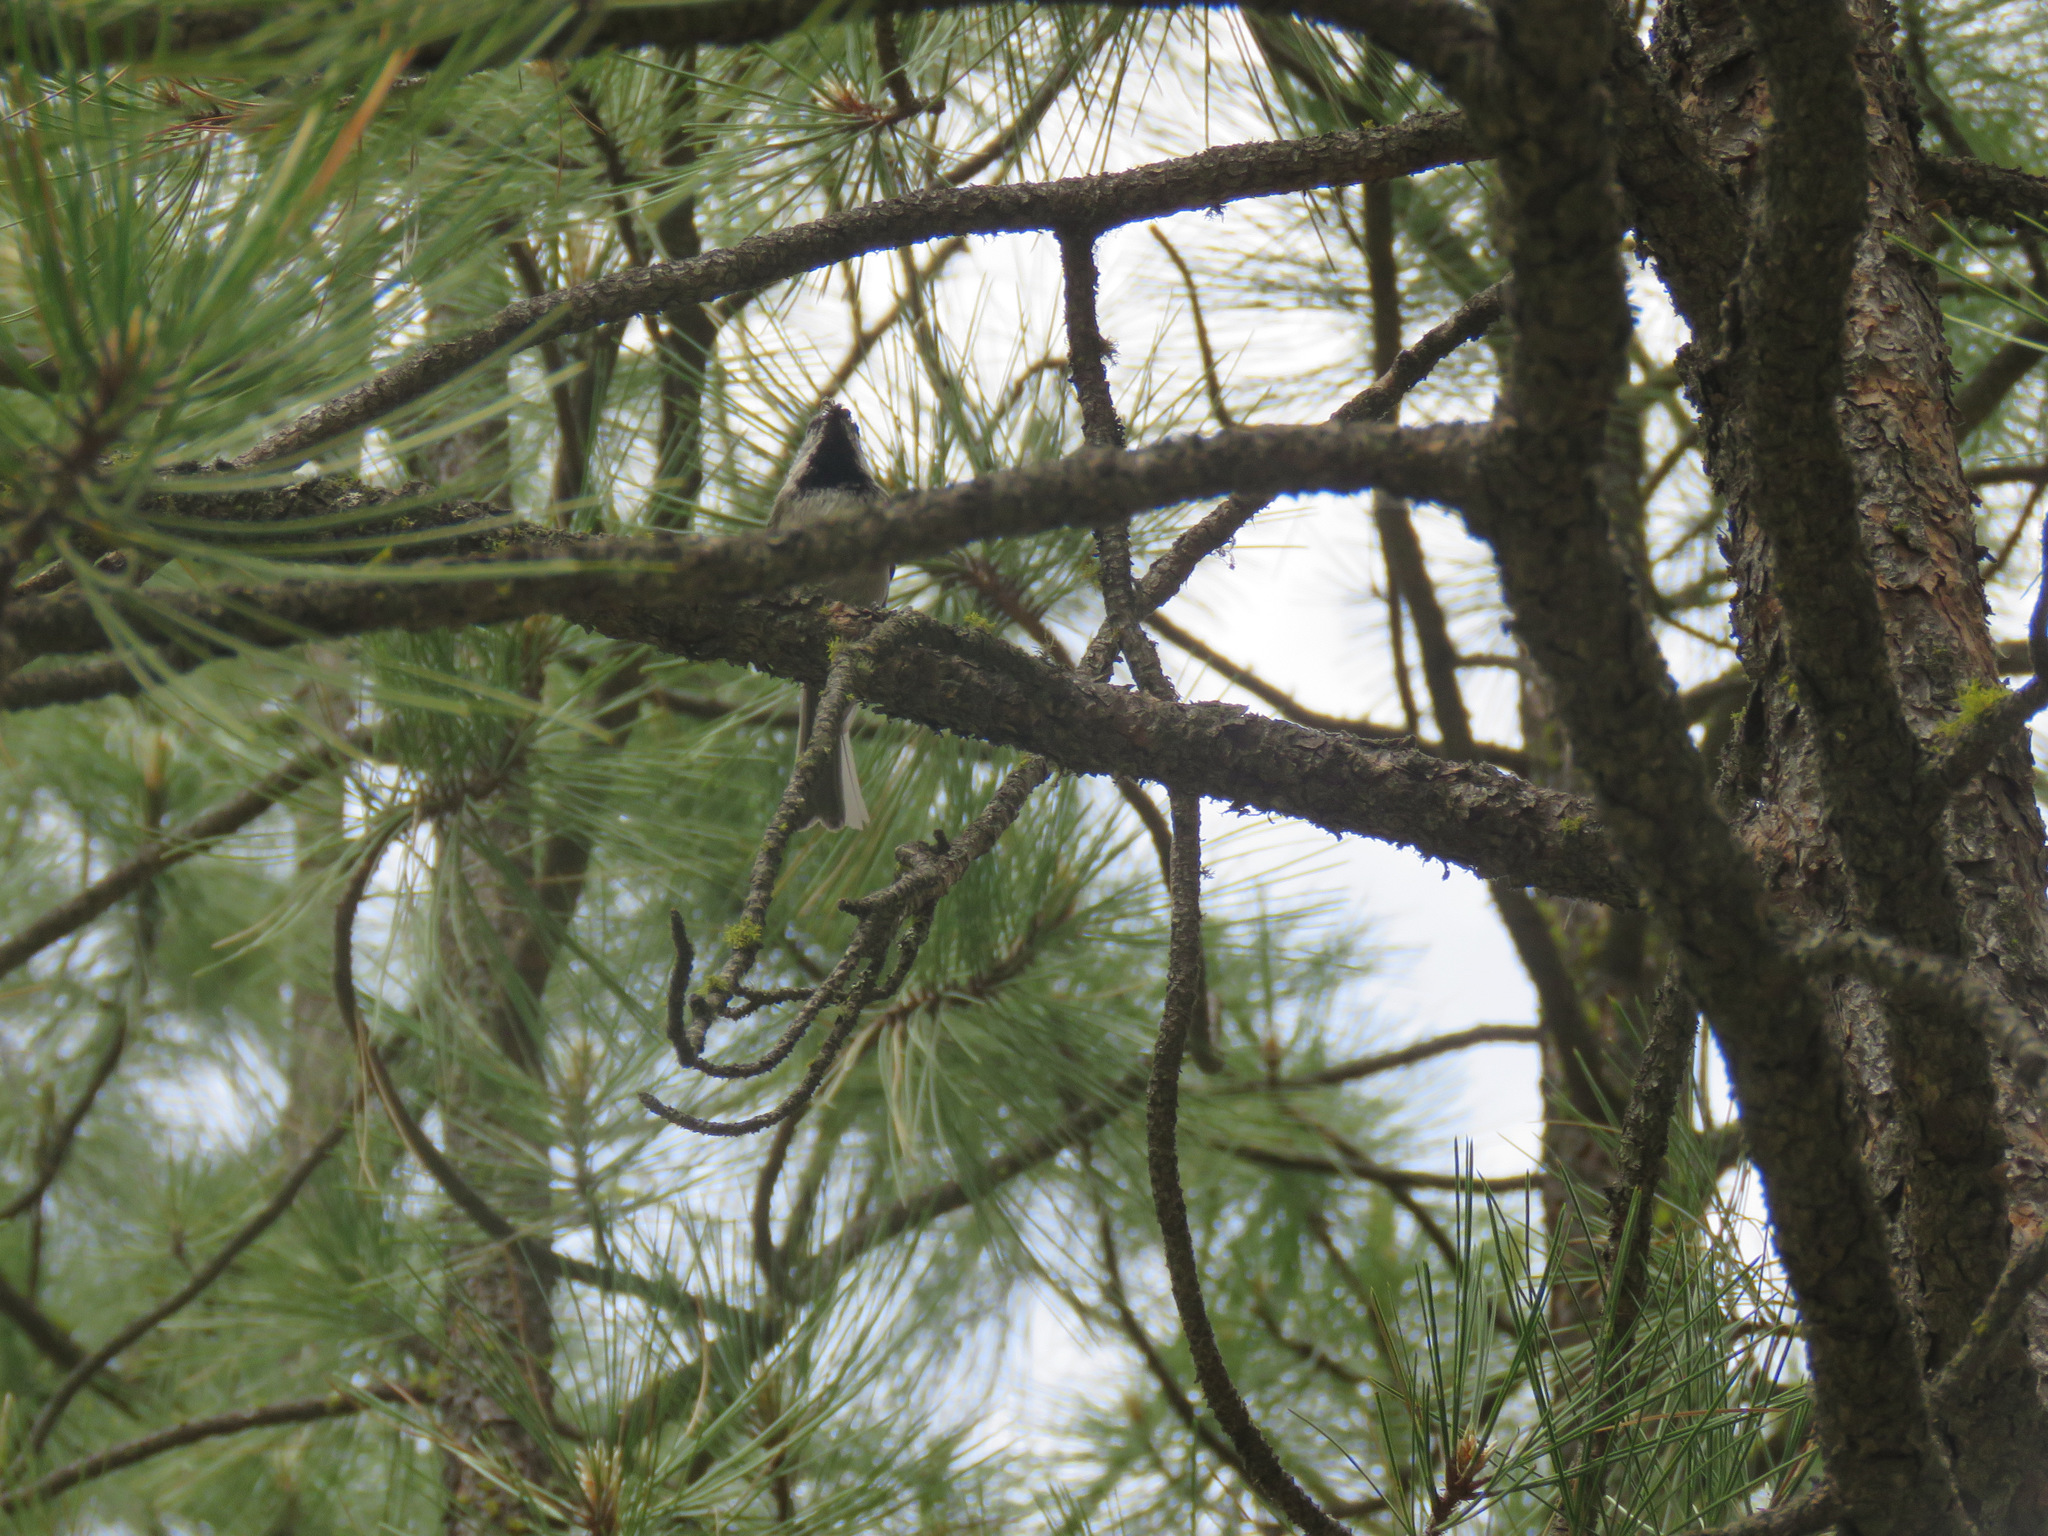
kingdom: Animalia
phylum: Chordata
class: Aves
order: Passeriformes
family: Paridae
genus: Poecile
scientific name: Poecile gambeli
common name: Mountain chickadee
